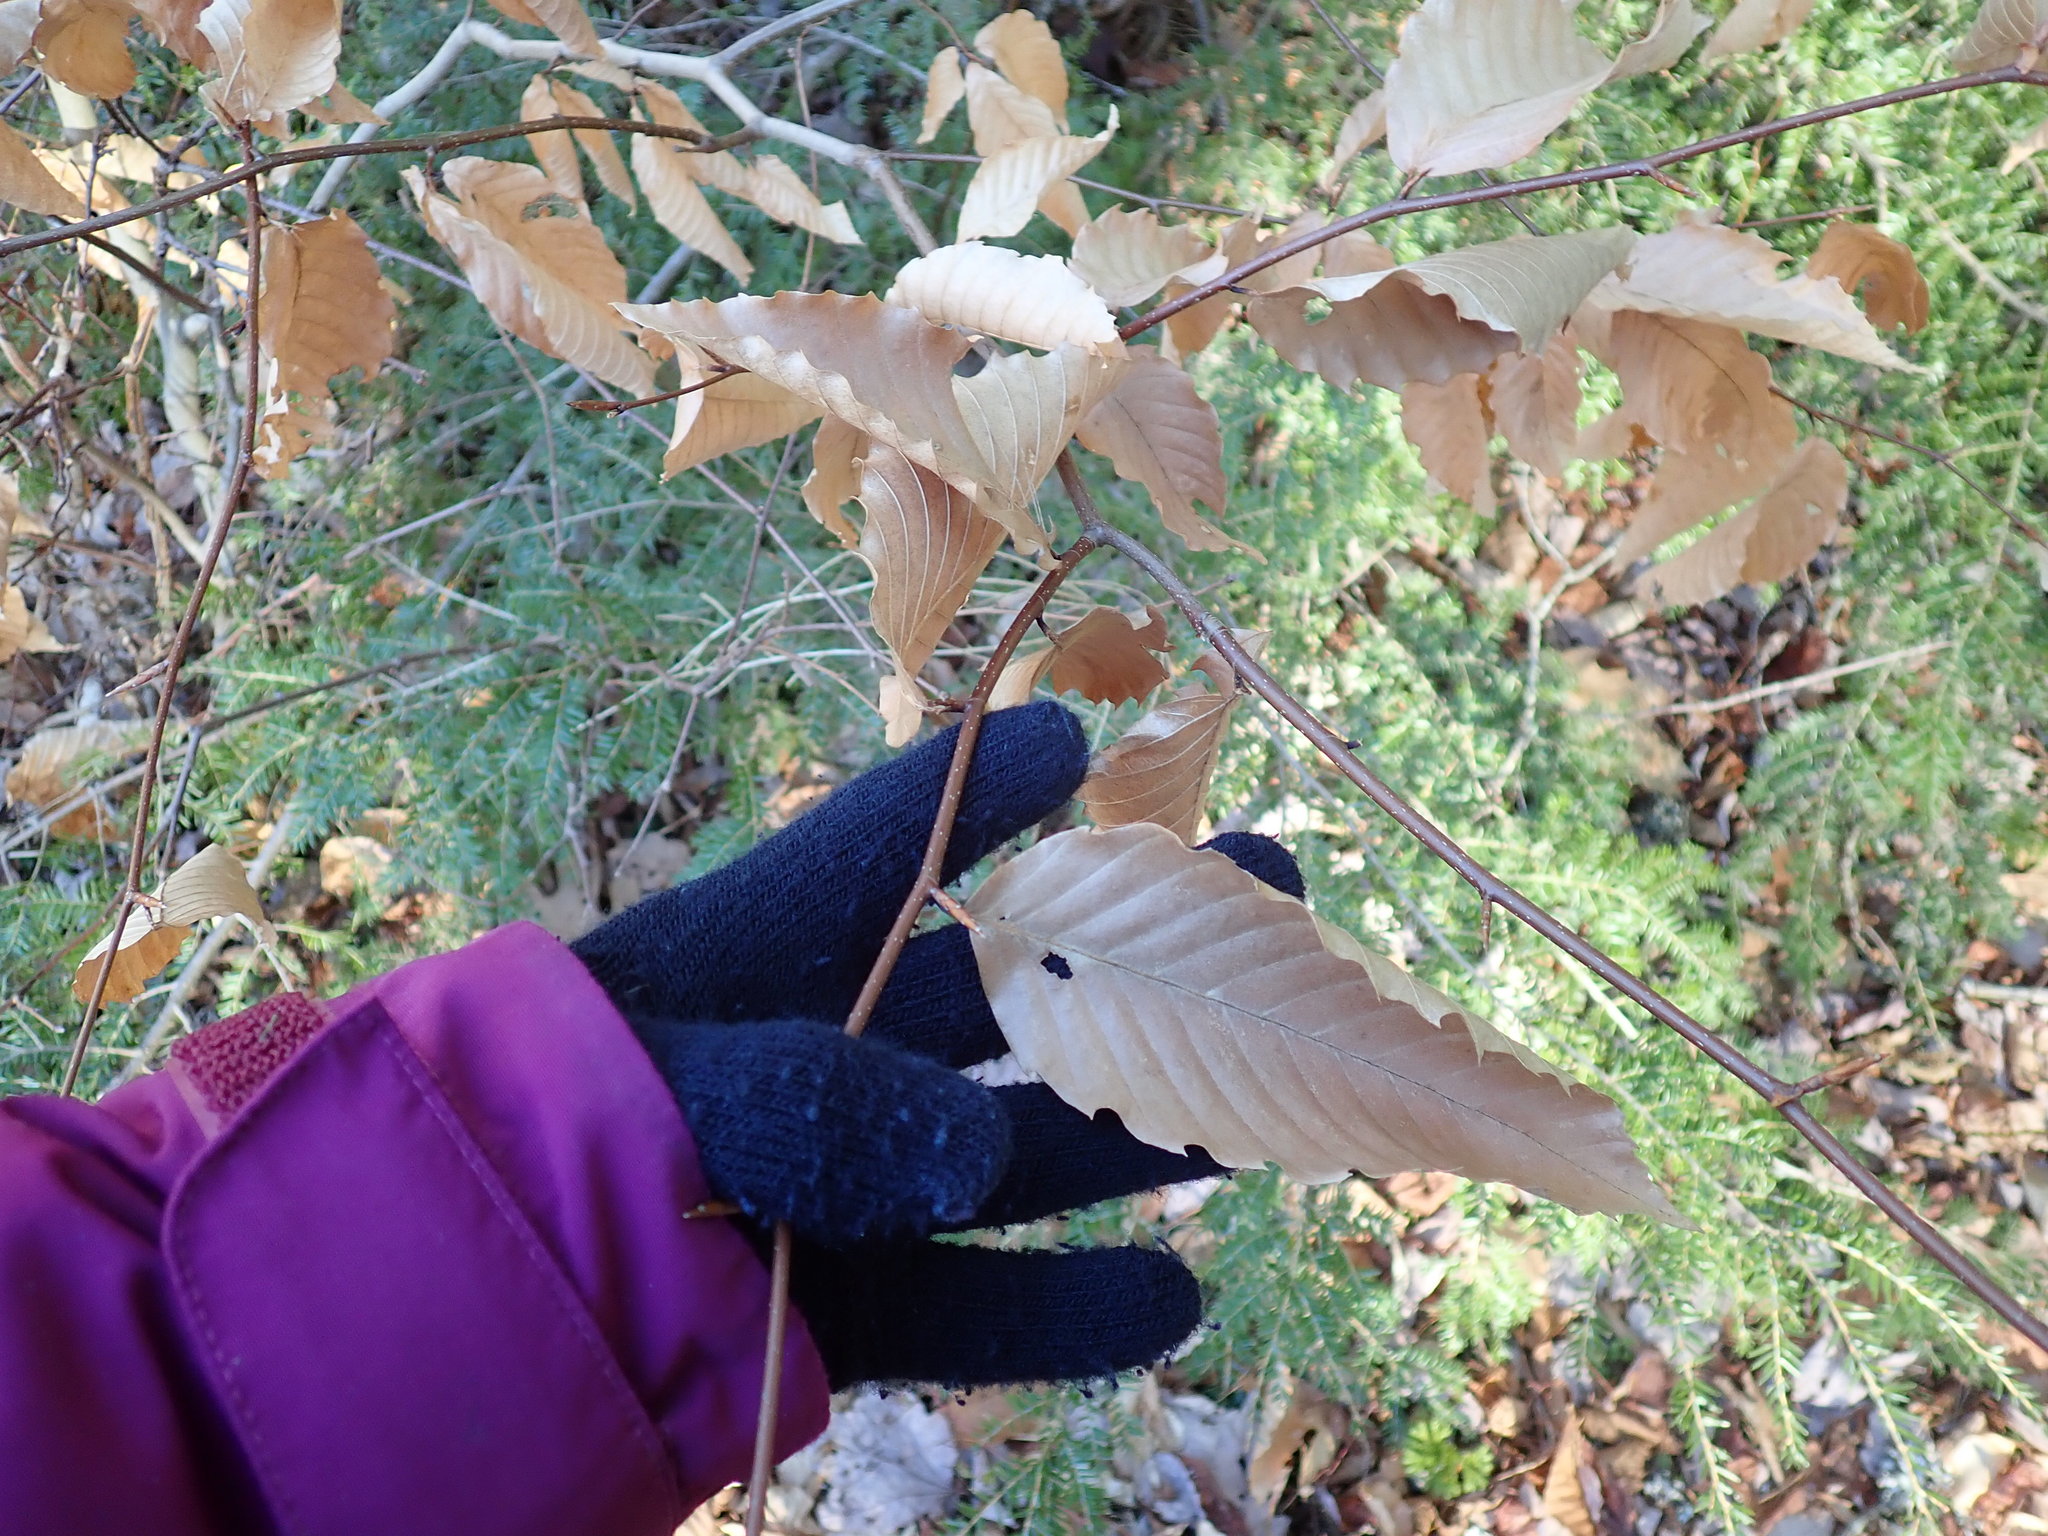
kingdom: Plantae
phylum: Tracheophyta
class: Magnoliopsida
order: Fagales
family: Fagaceae
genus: Fagus
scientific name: Fagus grandifolia
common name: American beech
